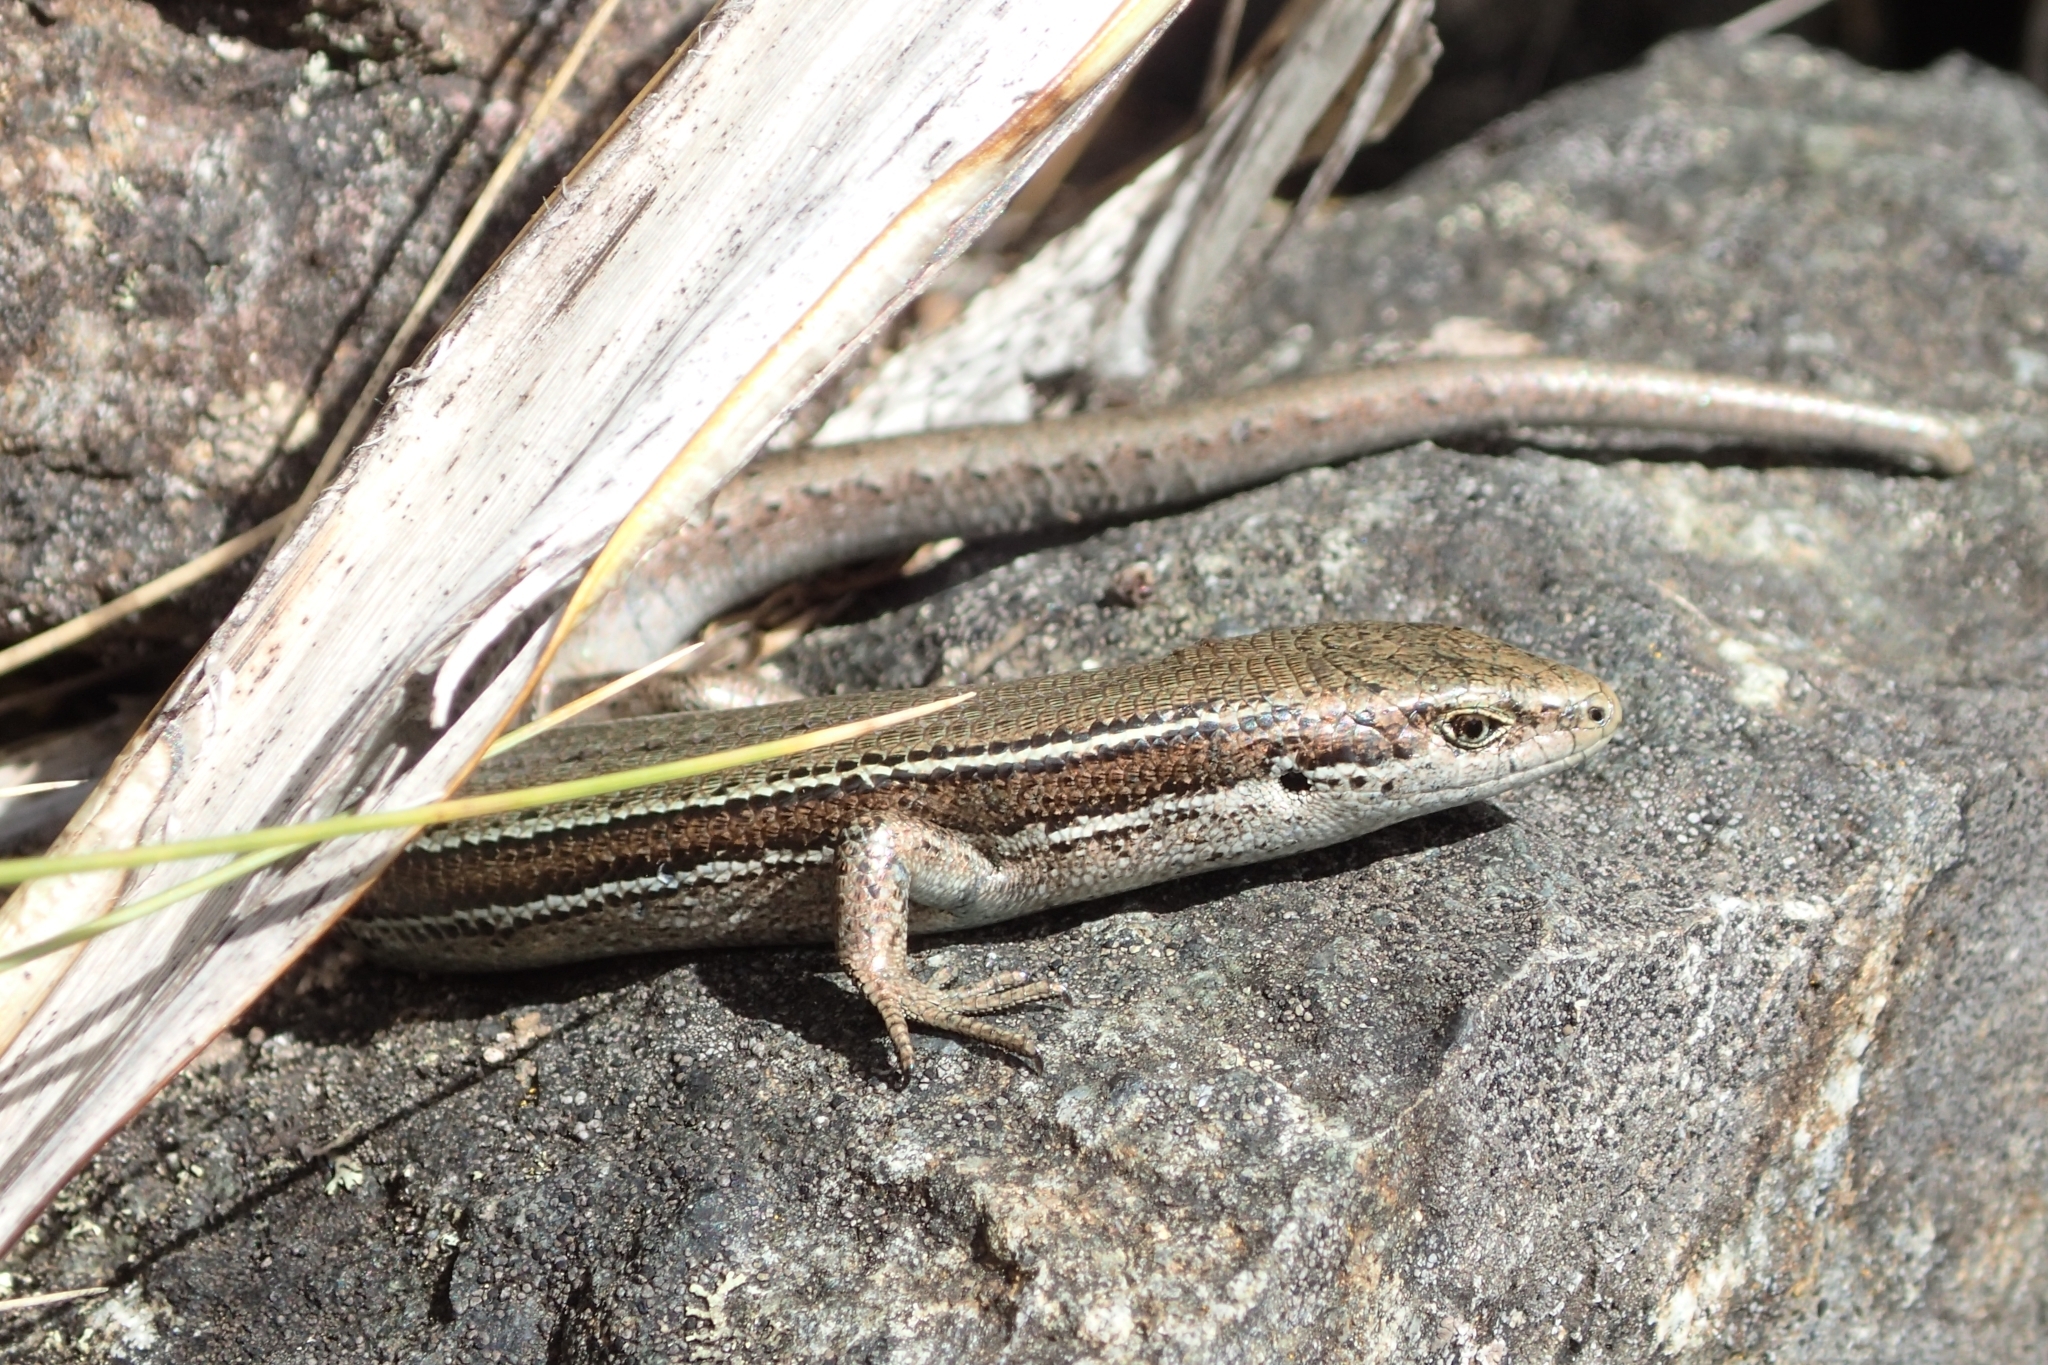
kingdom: Animalia
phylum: Chordata
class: Squamata
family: Scincidae
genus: Oligosoma
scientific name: Oligosoma repens
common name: Eyres skink
